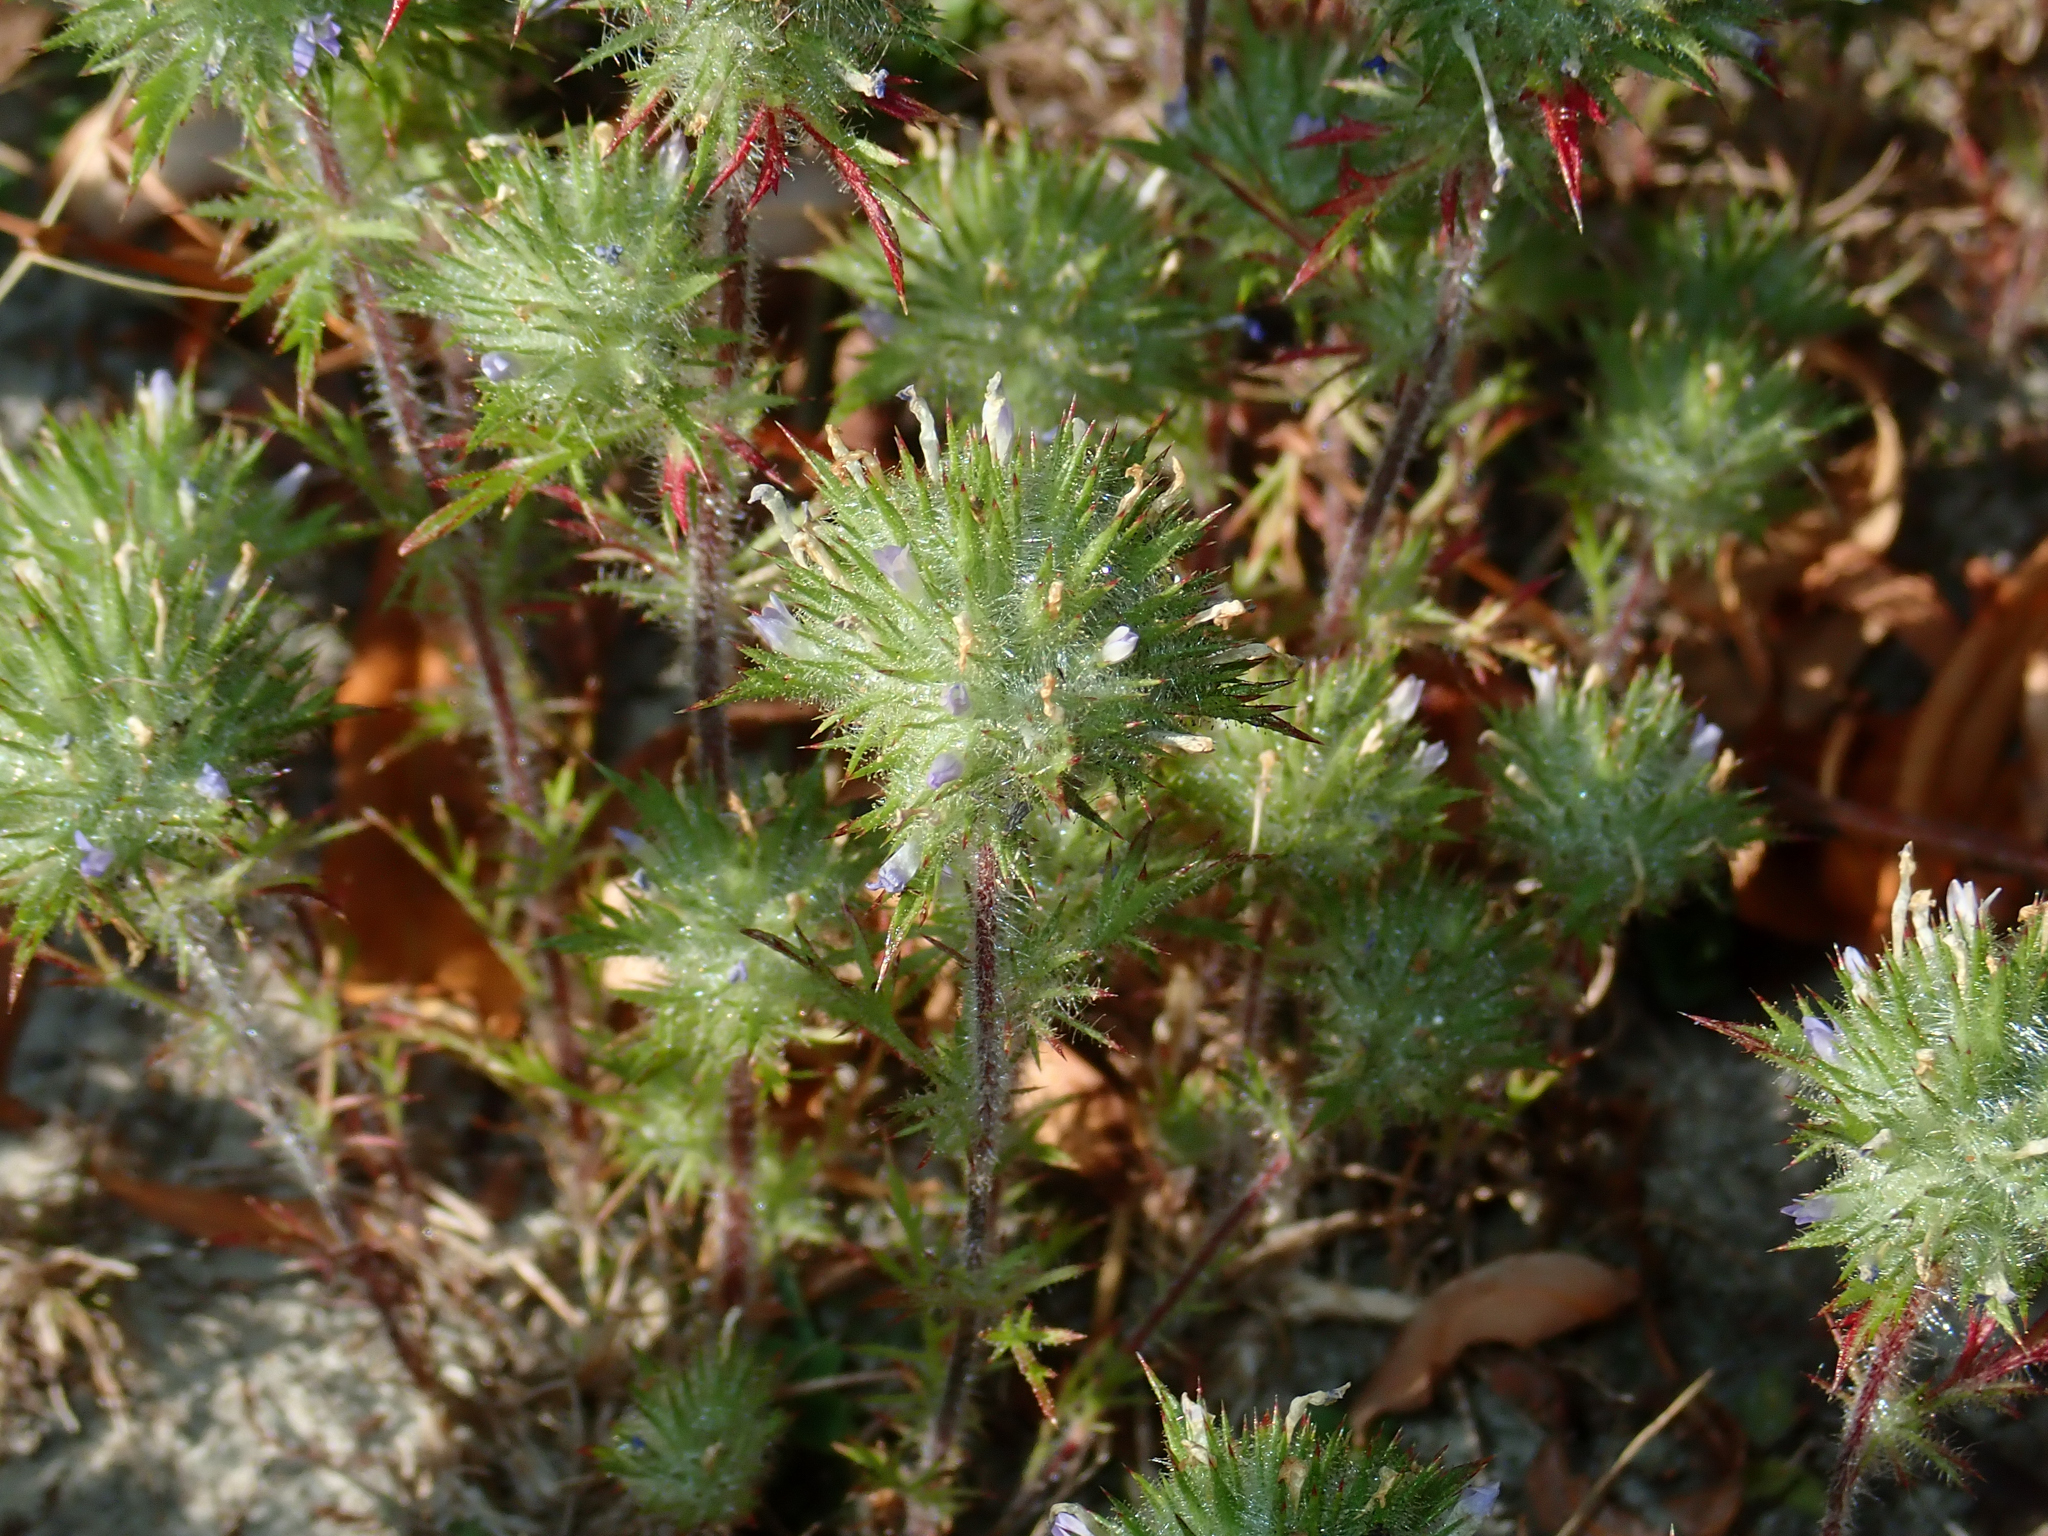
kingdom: Plantae
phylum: Tracheophyta
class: Magnoliopsida
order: Ericales
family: Polemoniaceae
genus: Navarretia
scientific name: Navarretia squarrosa
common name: Skunkweed
